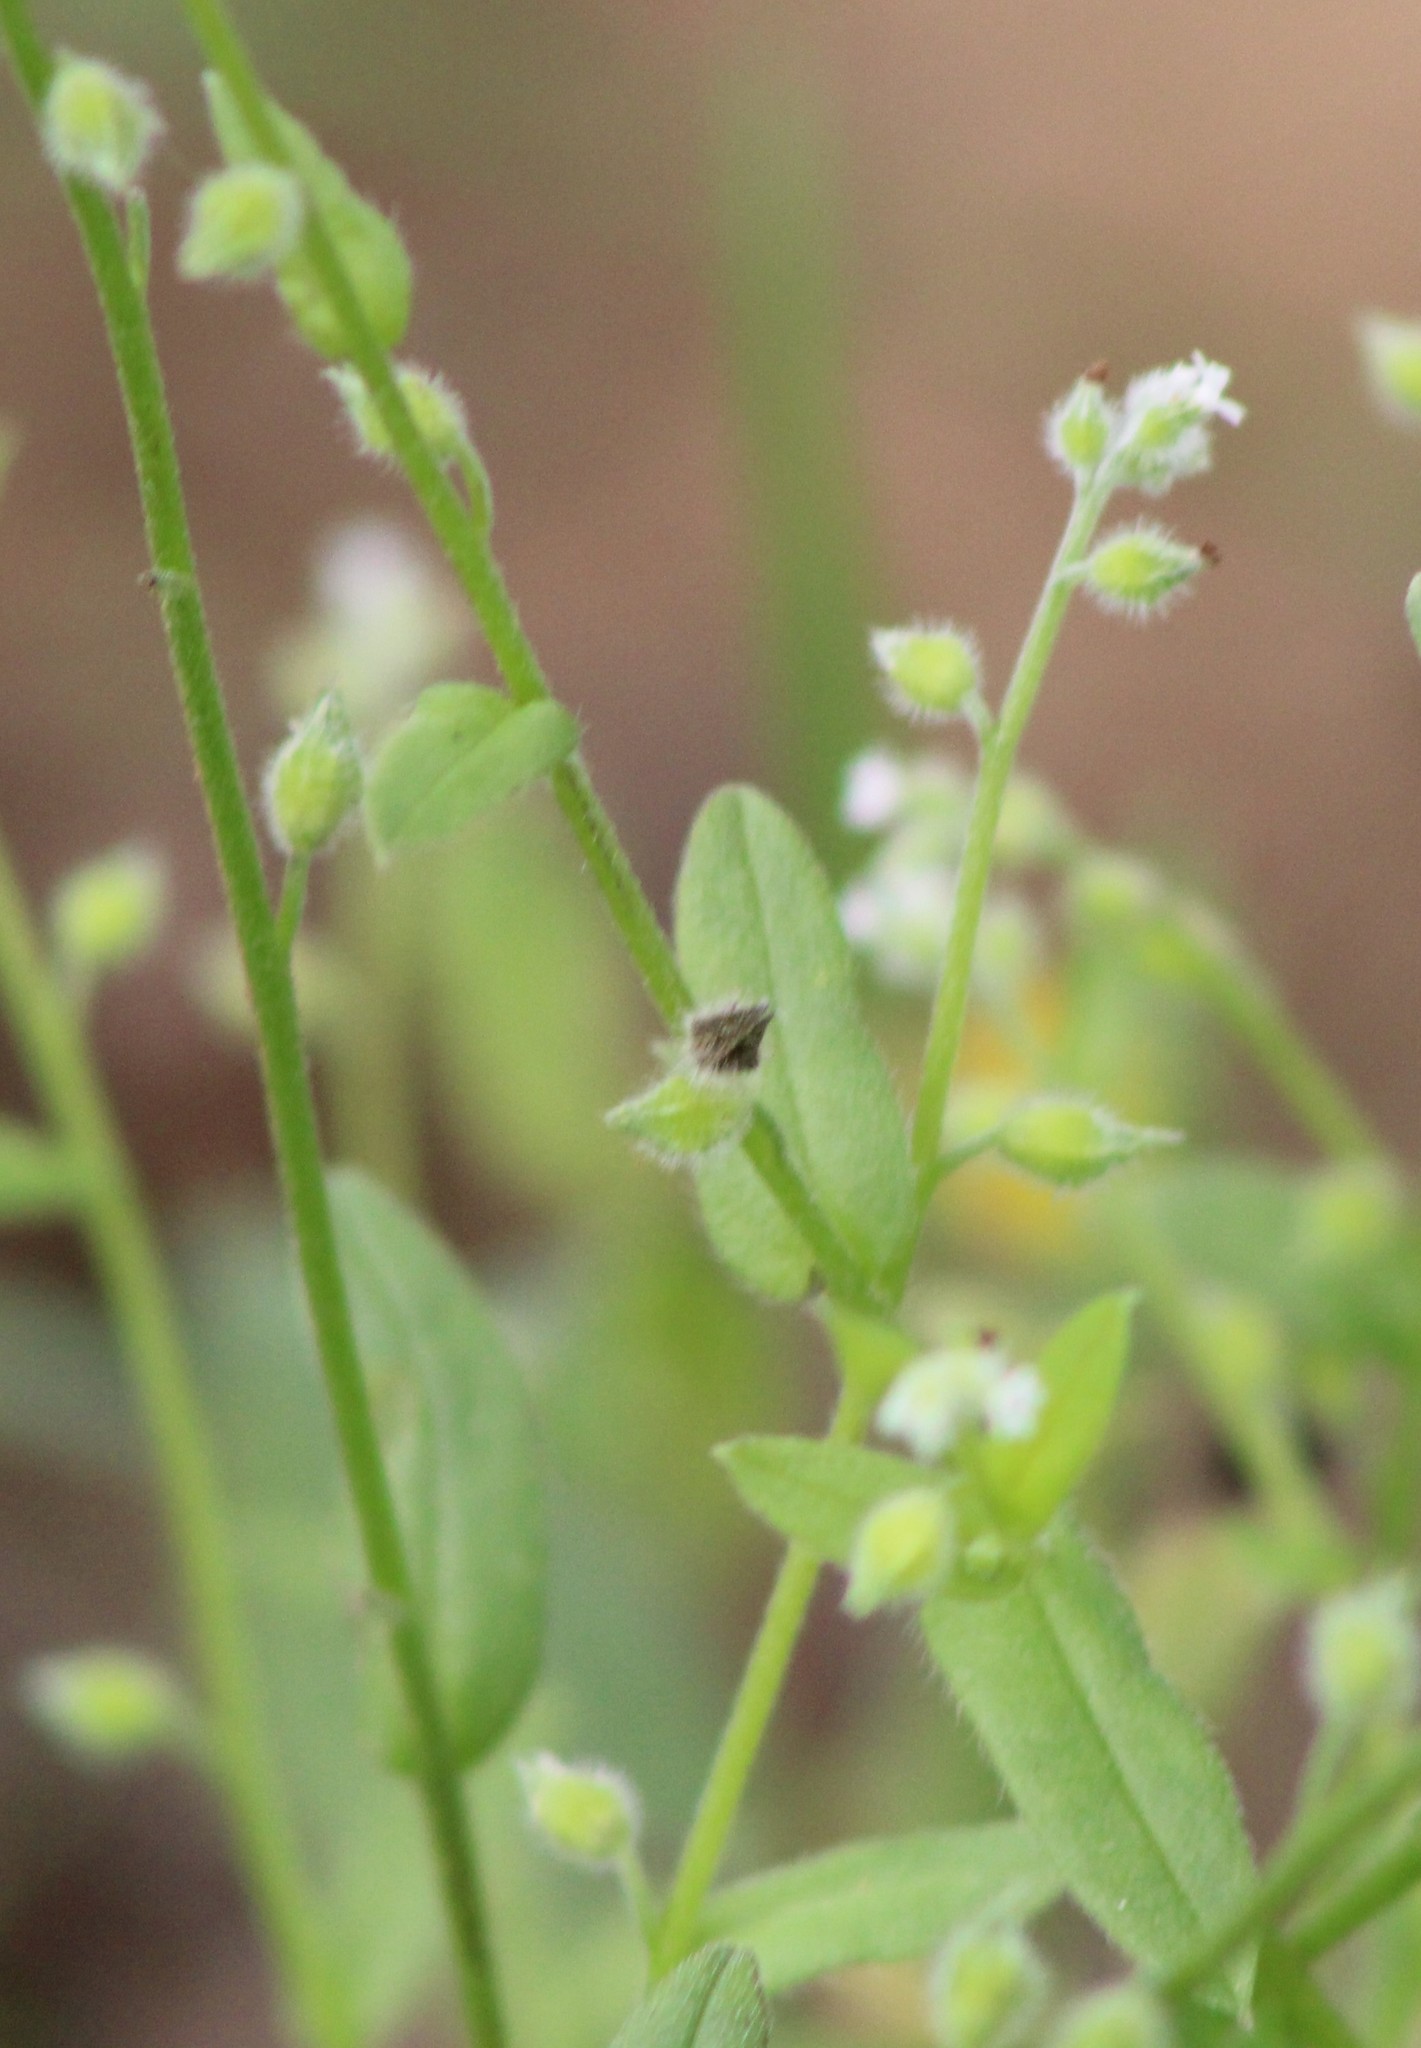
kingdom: Plantae
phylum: Tracheophyta
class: Magnoliopsida
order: Boraginales
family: Boraginaceae
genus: Myosotis
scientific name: Myosotis macrosperma
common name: Large-seed forget-me-not
